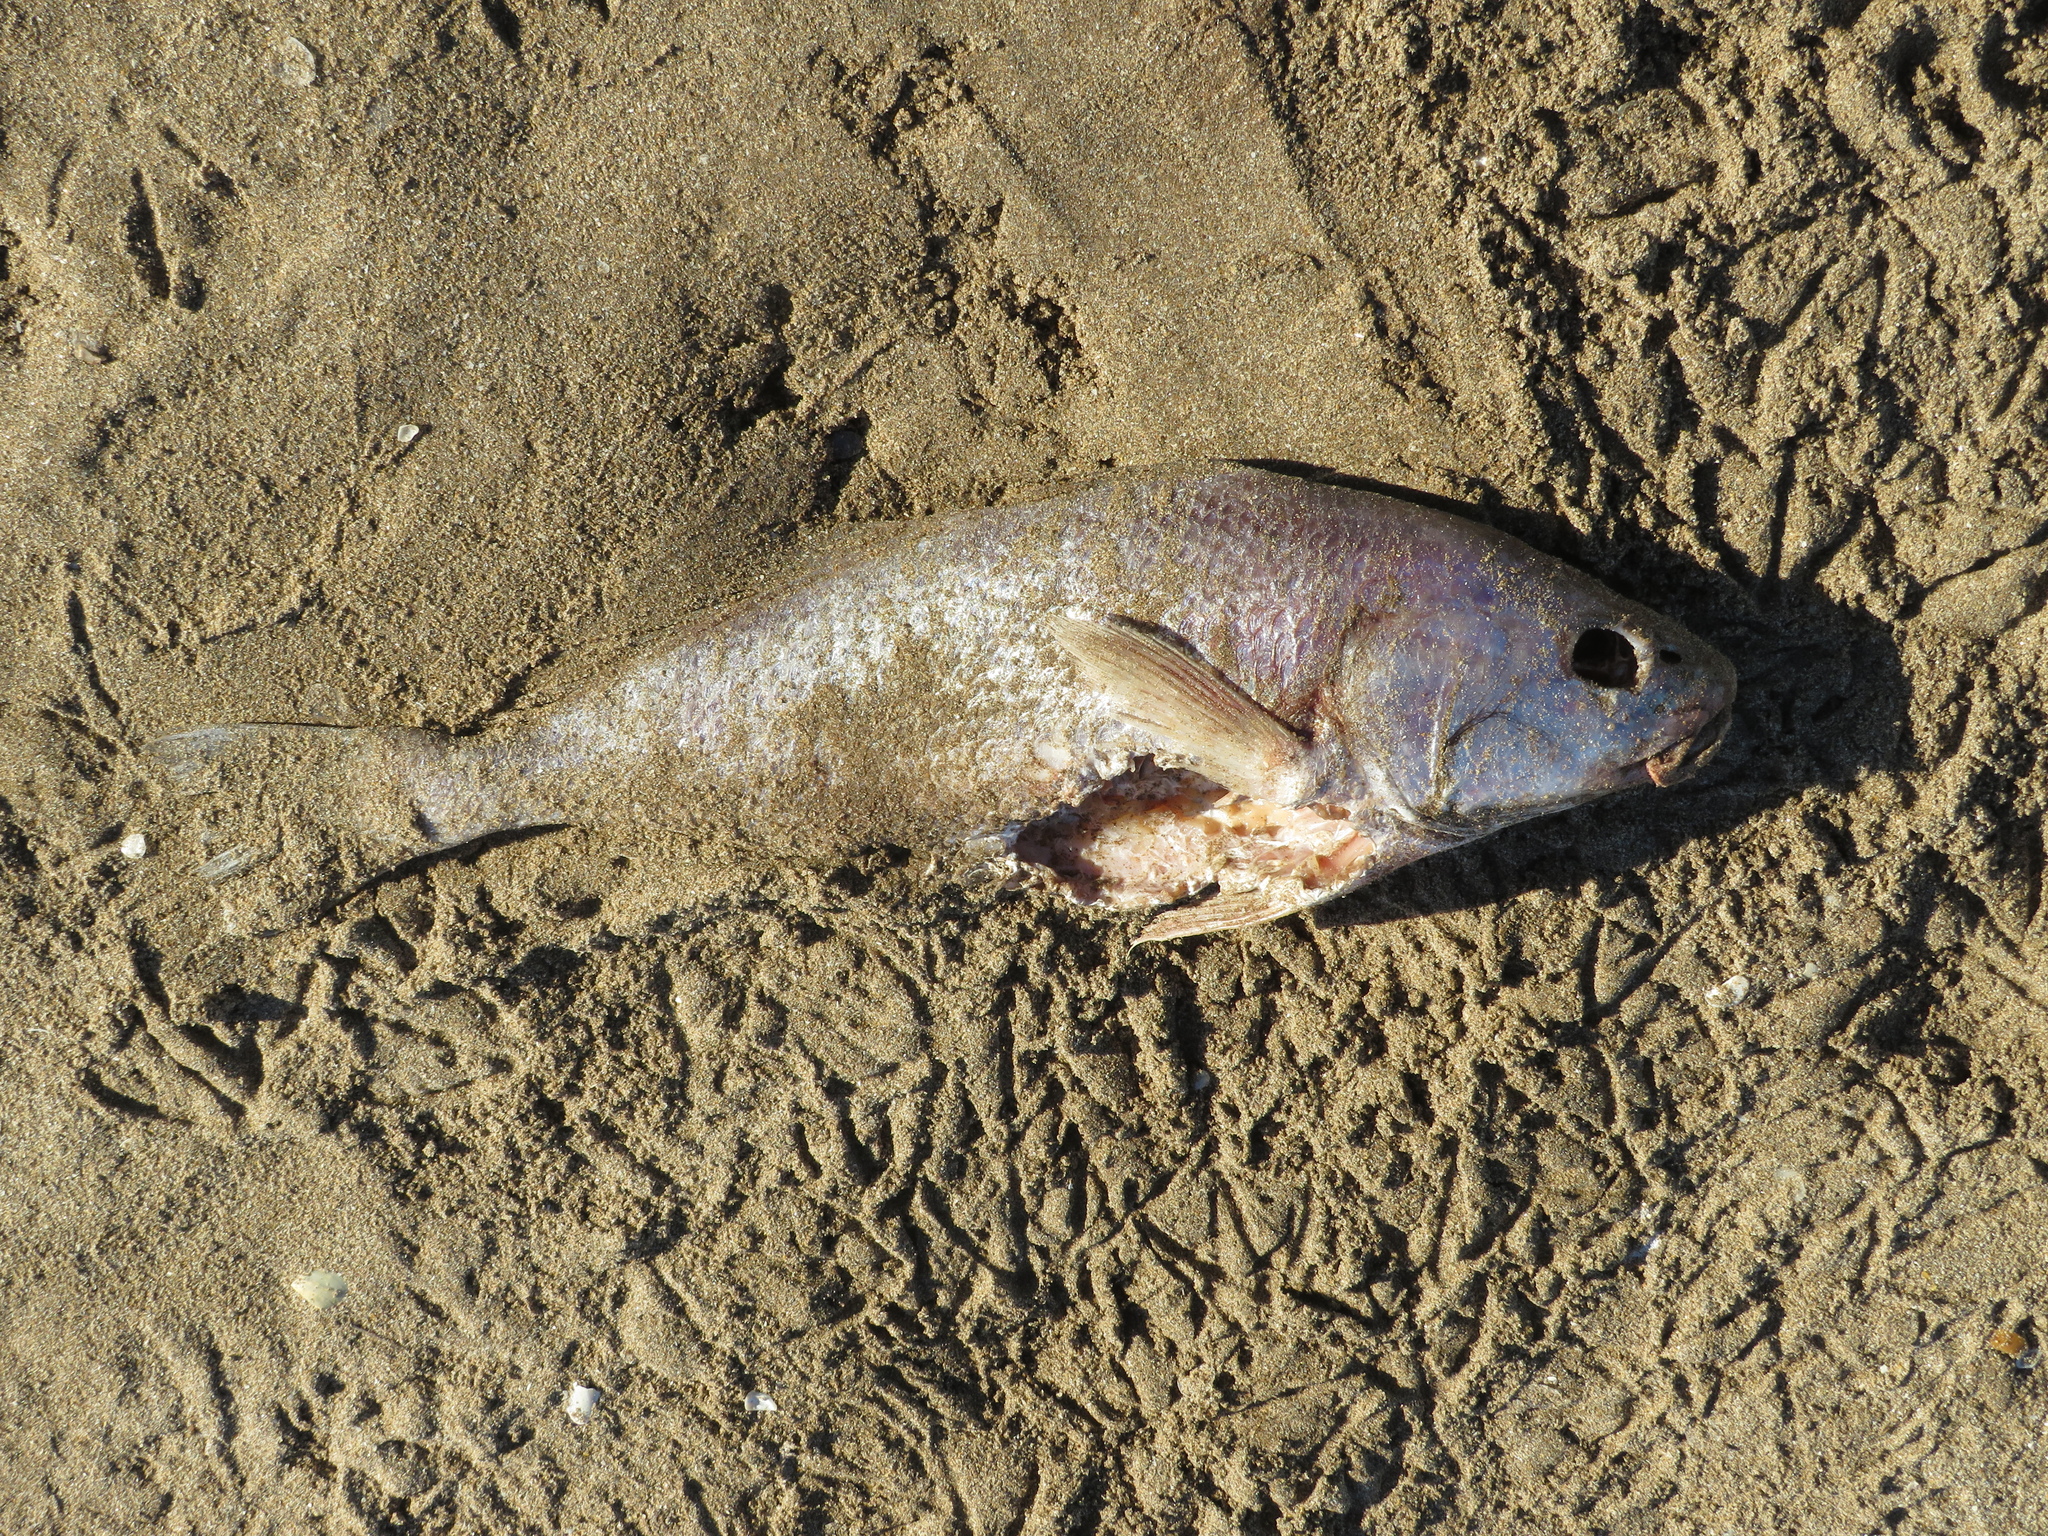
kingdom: Animalia
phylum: Chordata
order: Perciformes
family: Sciaenidae
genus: Micropogonias
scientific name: Micropogonias furnieri
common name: Whitemouth croaker
